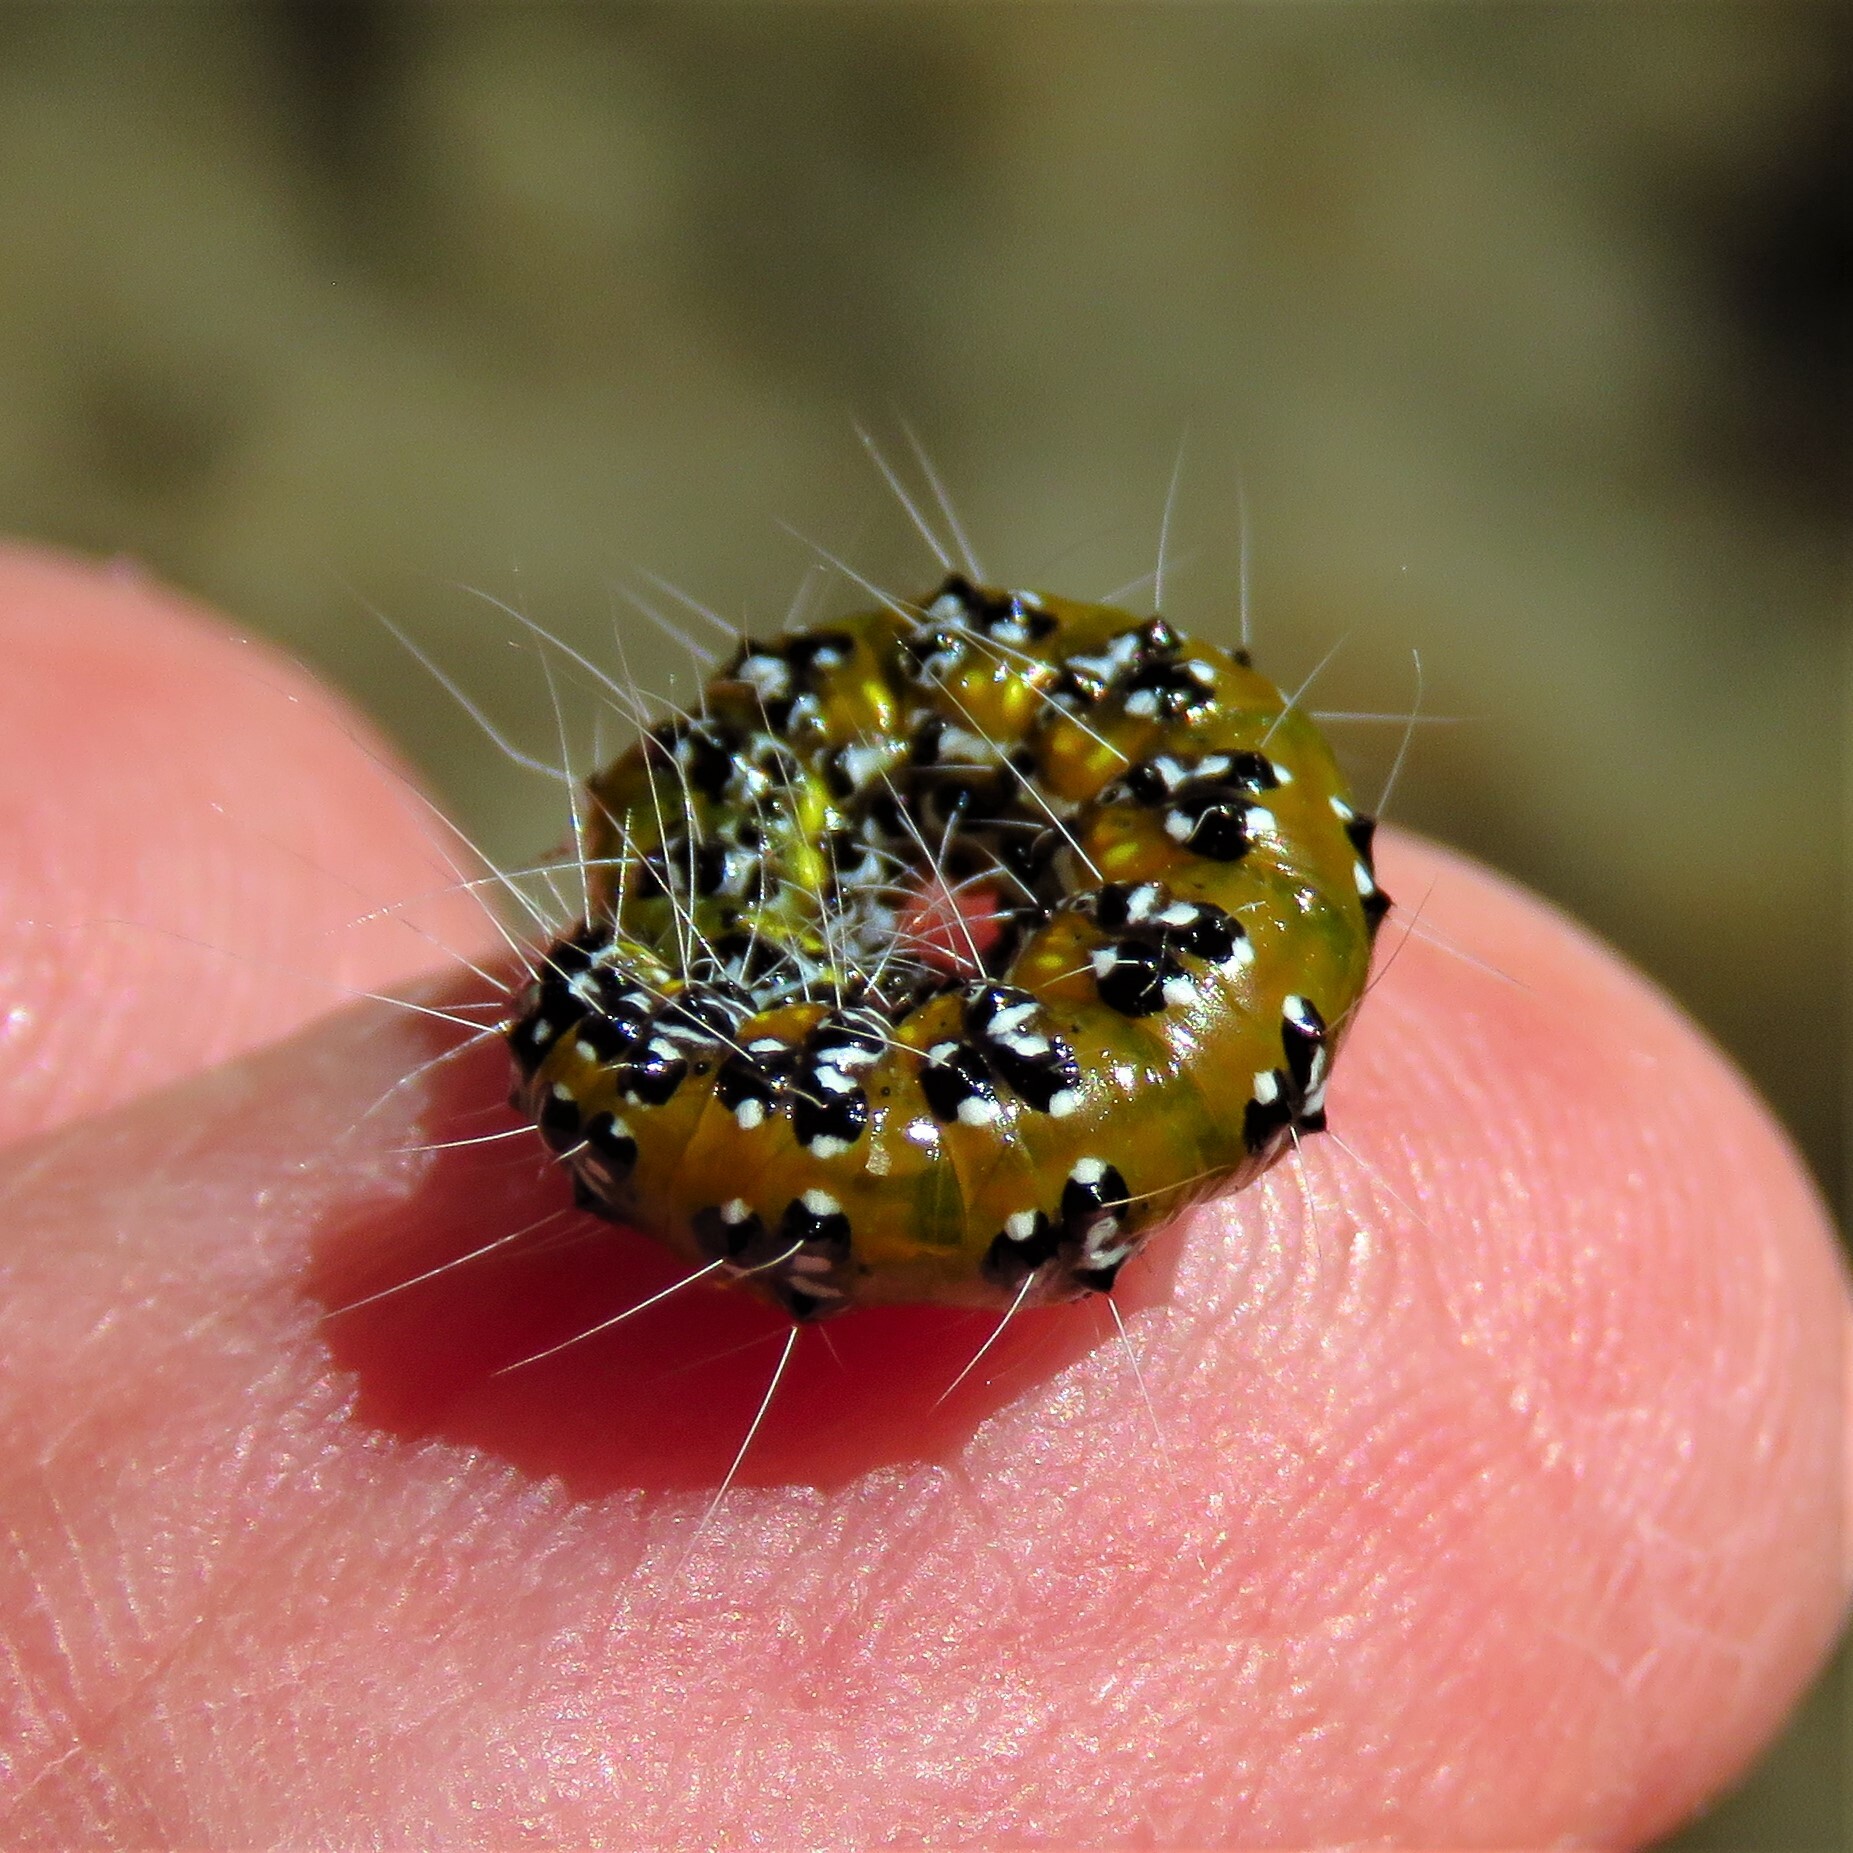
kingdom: Animalia
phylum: Arthropoda
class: Insecta
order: Lepidoptera
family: Crambidae
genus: Uresiphita
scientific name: Uresiphita reversalis
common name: Genista broom moth
